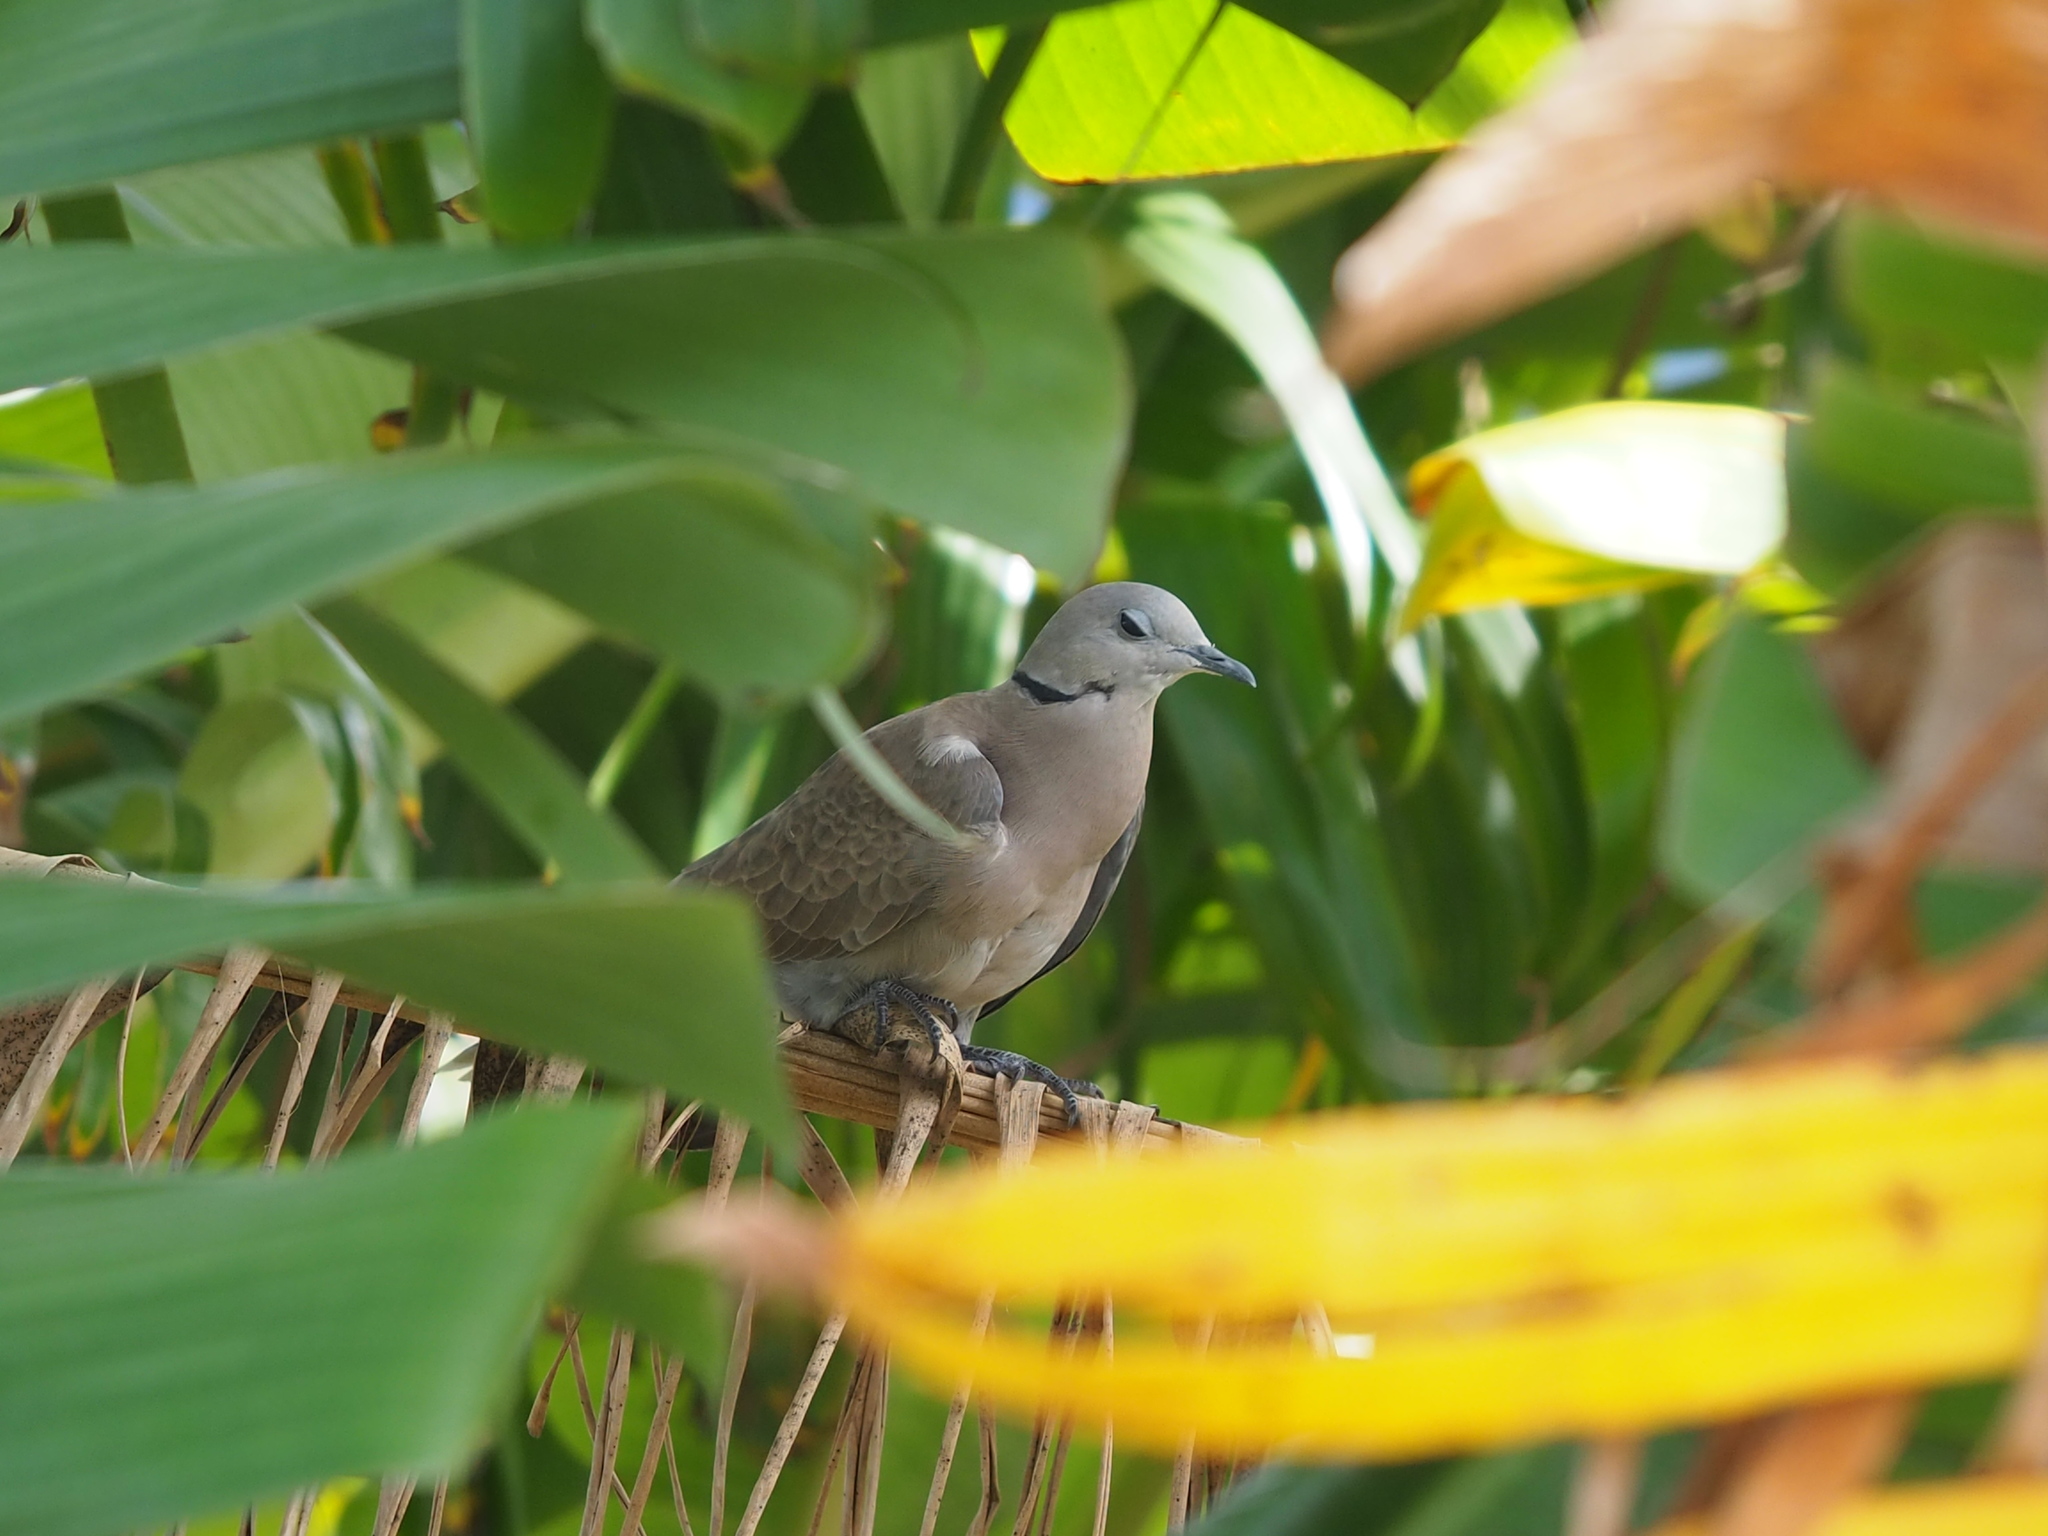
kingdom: Animalia
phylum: Chordata
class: Aves
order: Columbiformes
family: Columbidae
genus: Streptopelia
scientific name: Streptopelia tranquebarica
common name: Red turtle dove
